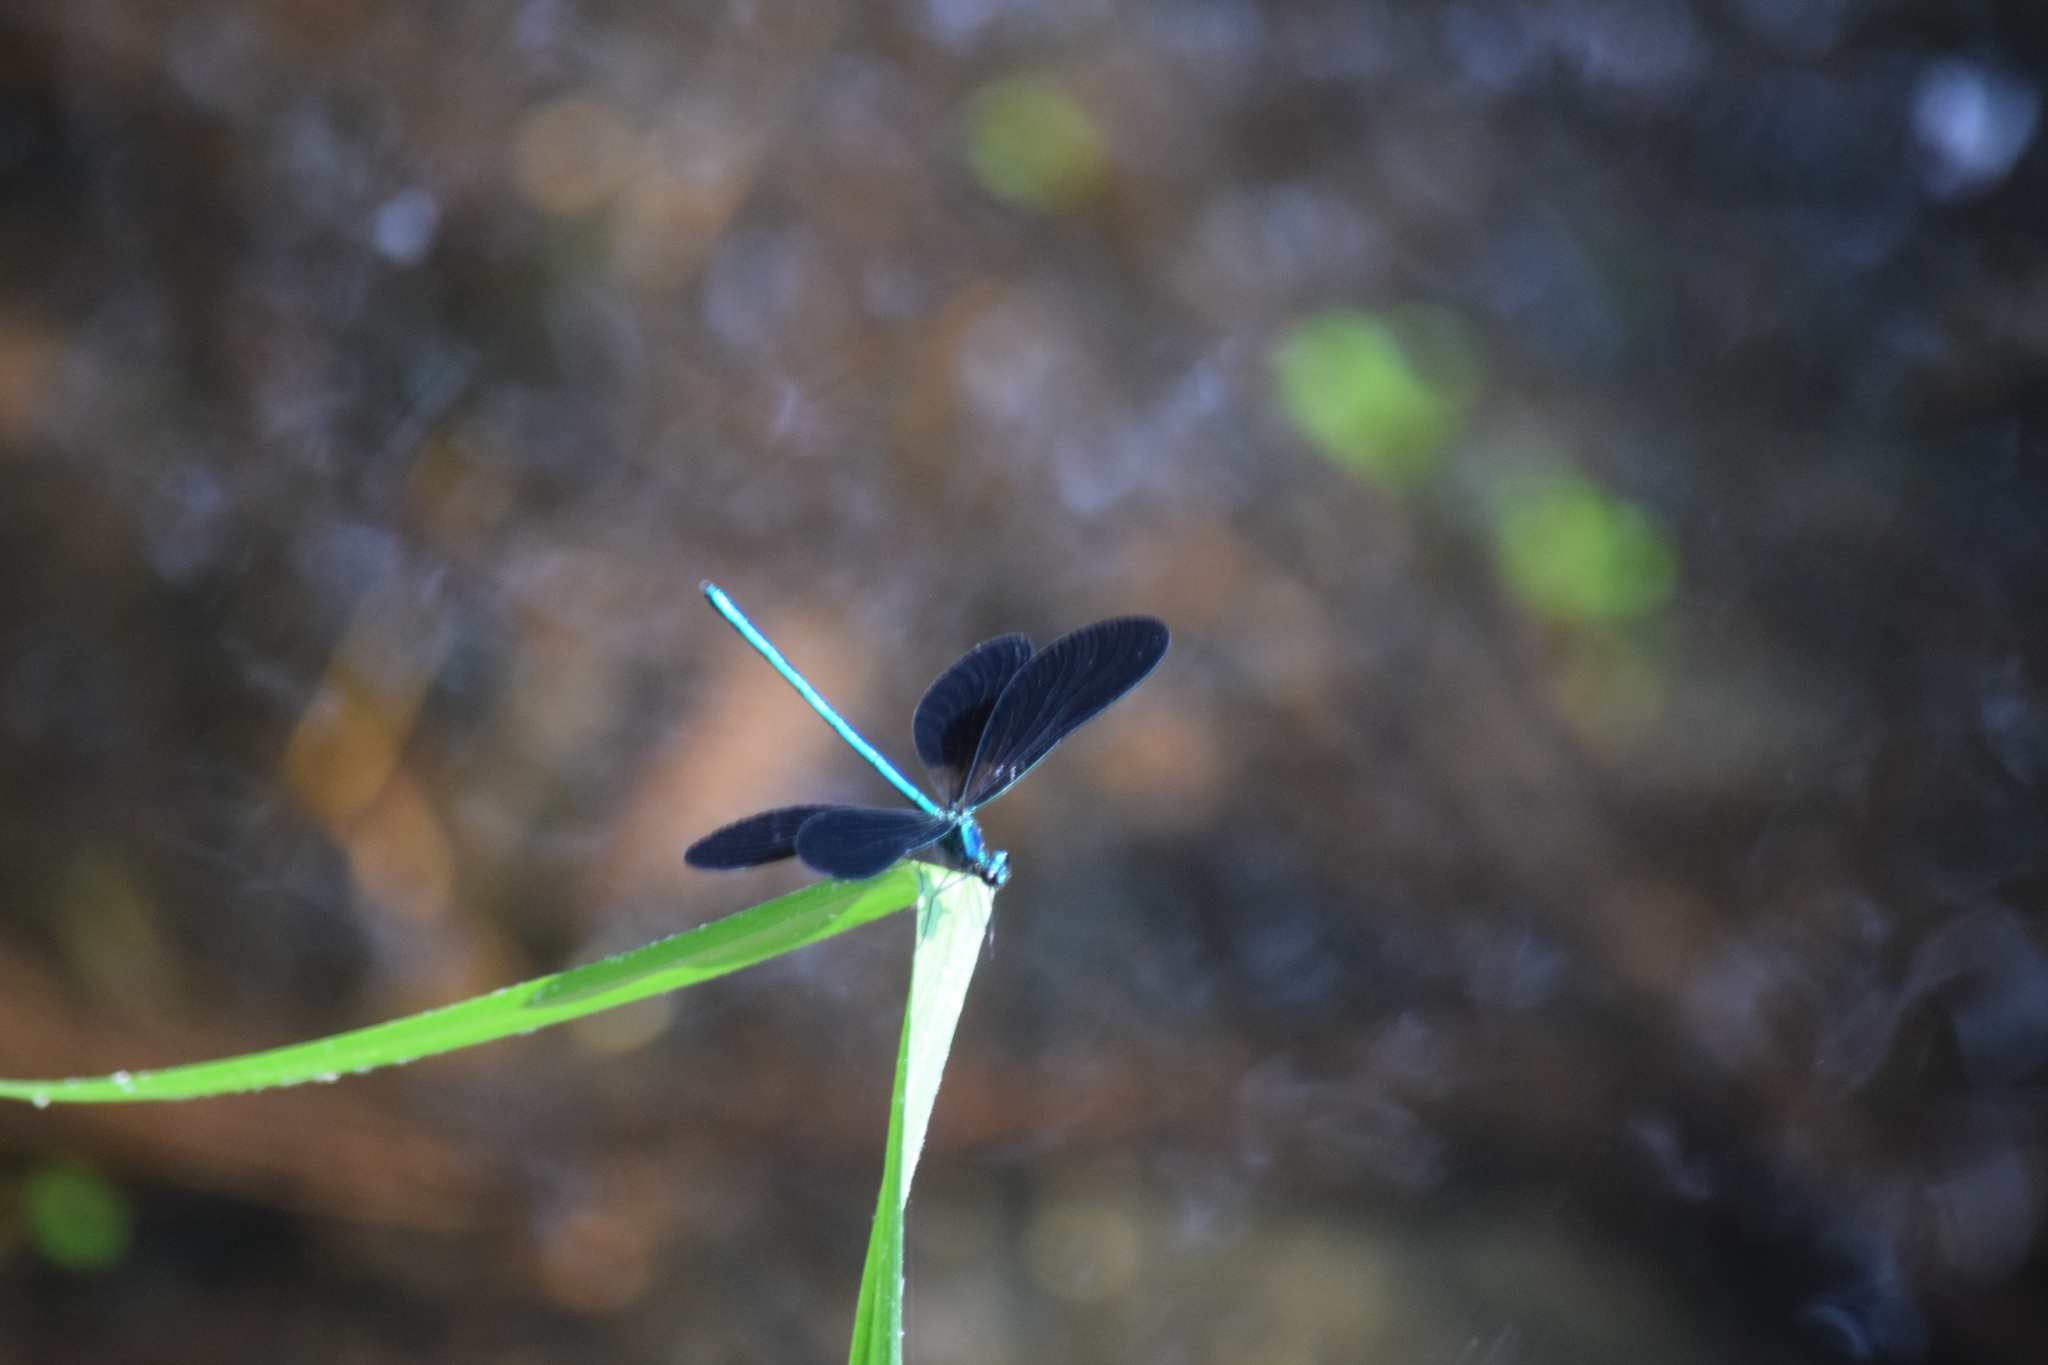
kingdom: Animalia
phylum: Arthropoda
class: Insecta
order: Odonata
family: Calopterygidae
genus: Calopteryx
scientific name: Calopteryx maculata
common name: Ebony jewelwing
